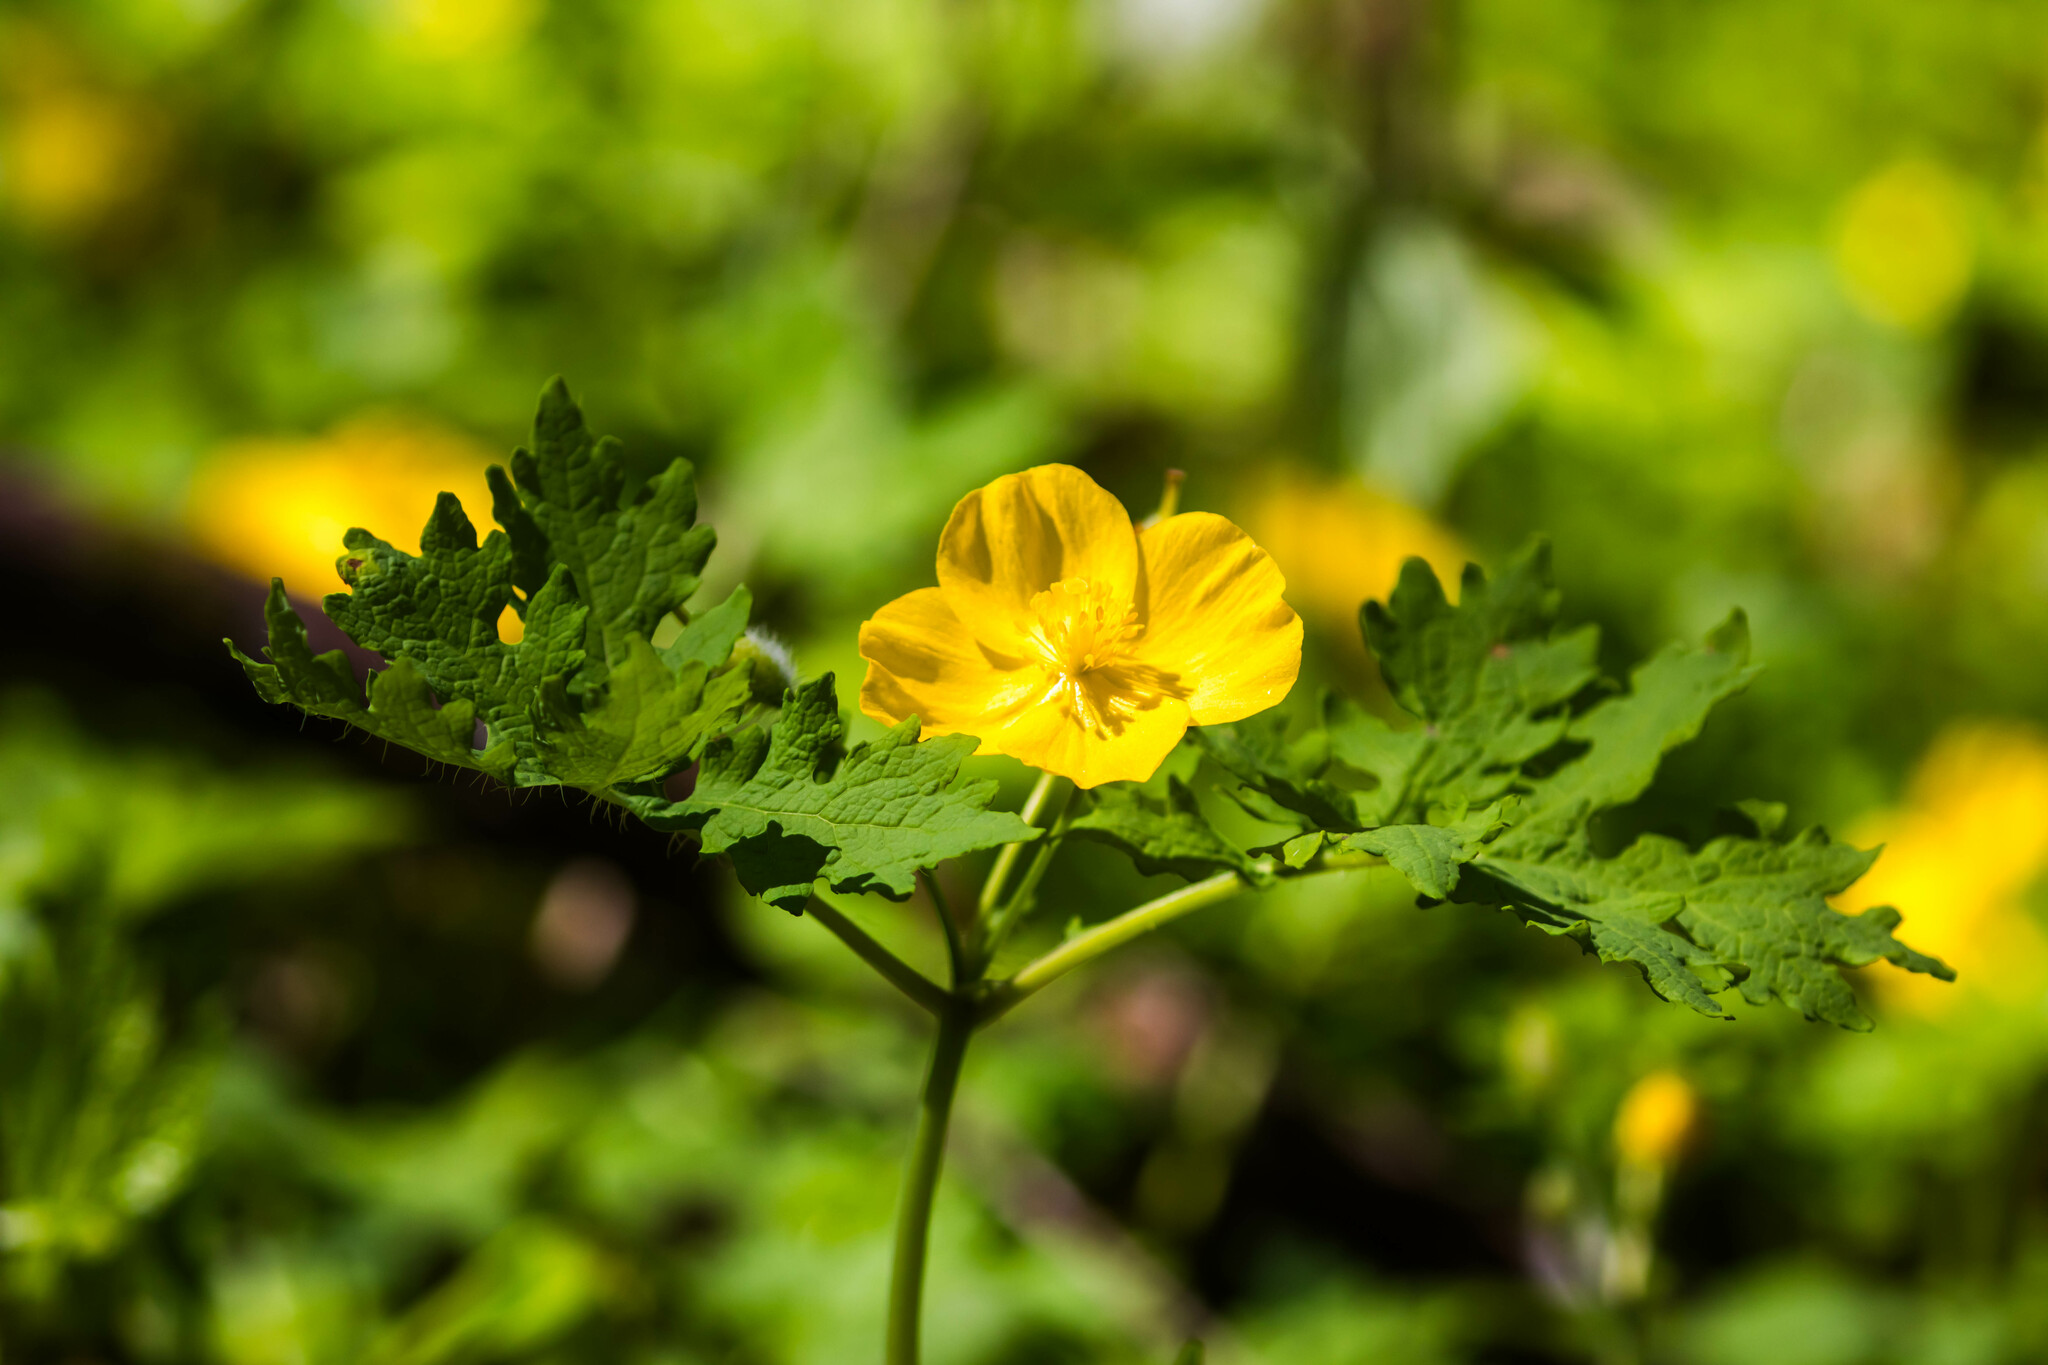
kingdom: Plantae
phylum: Tracheophyta
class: Magnoliopsida
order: Ranunculales
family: Papaveraceae
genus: Stylophorum
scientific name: Stylophorum diphyllum
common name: Celandine poppy
